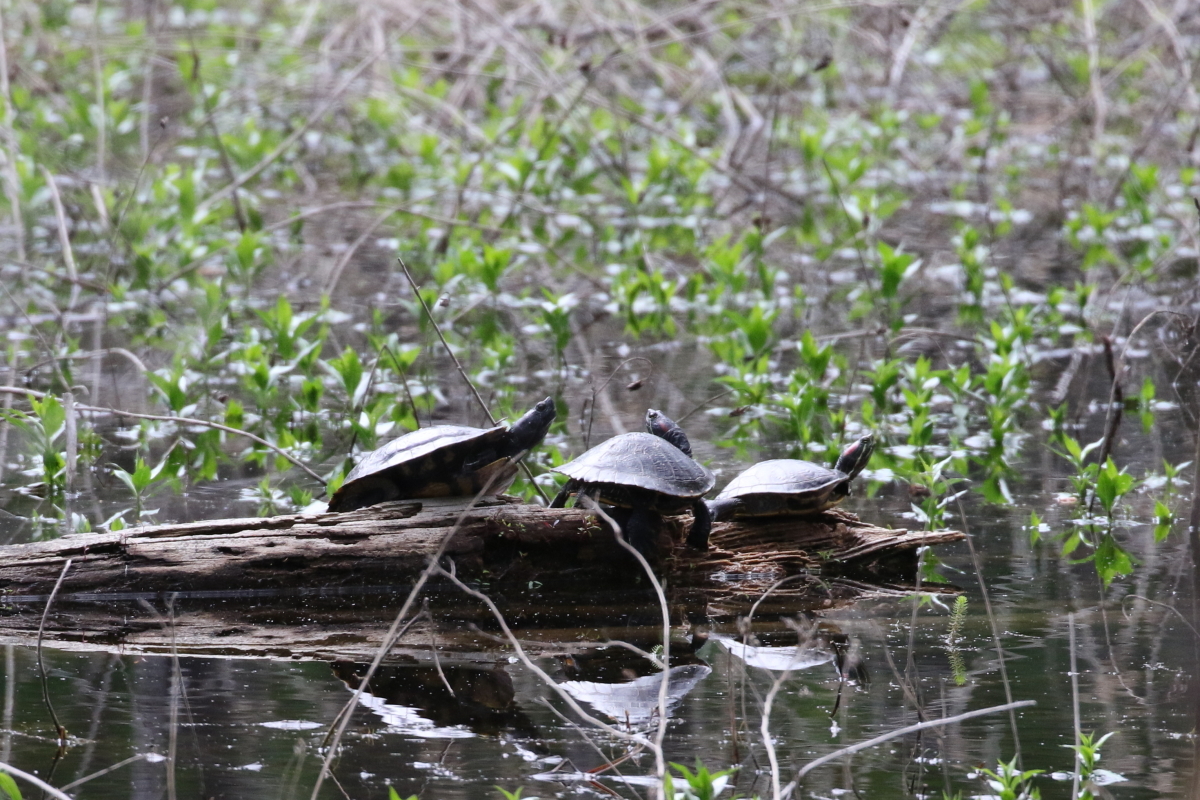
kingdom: Animalia
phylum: Chordata
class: Testudines
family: Emydidae
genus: Trachemys
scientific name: Trachemys scripta
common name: Slider
